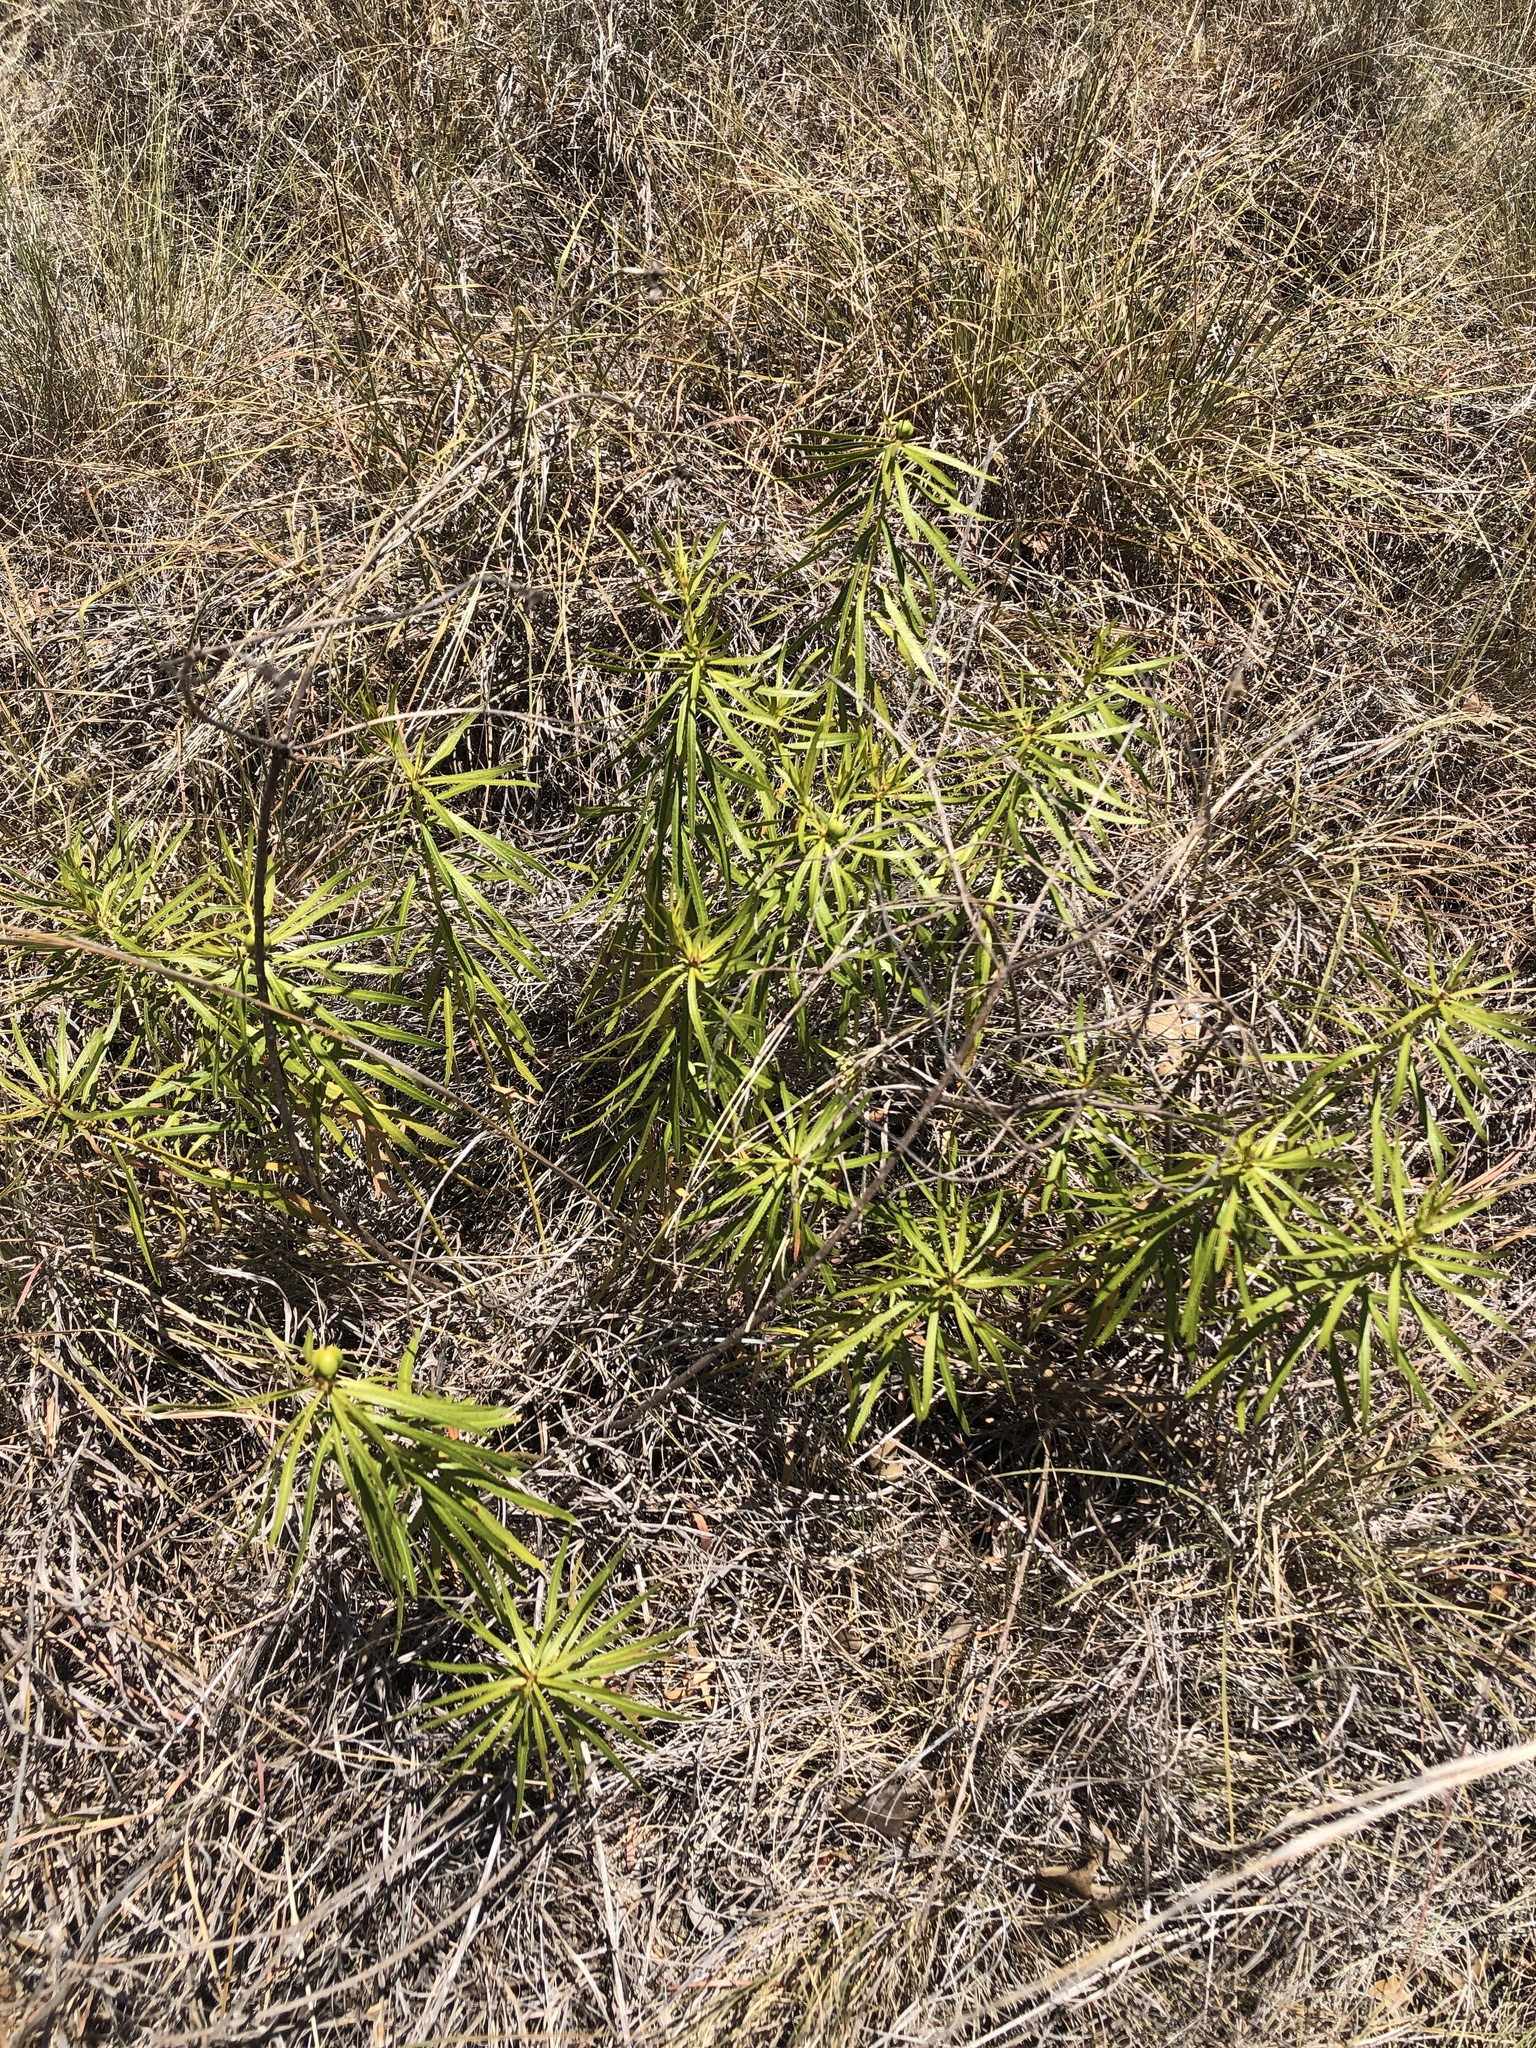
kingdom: Plantae
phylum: Tracheophyta
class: Magnoliopsida
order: Malpighiales
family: Euphorbiaceae
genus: Stillingia
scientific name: Stillingia texana
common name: Texas stillingia
